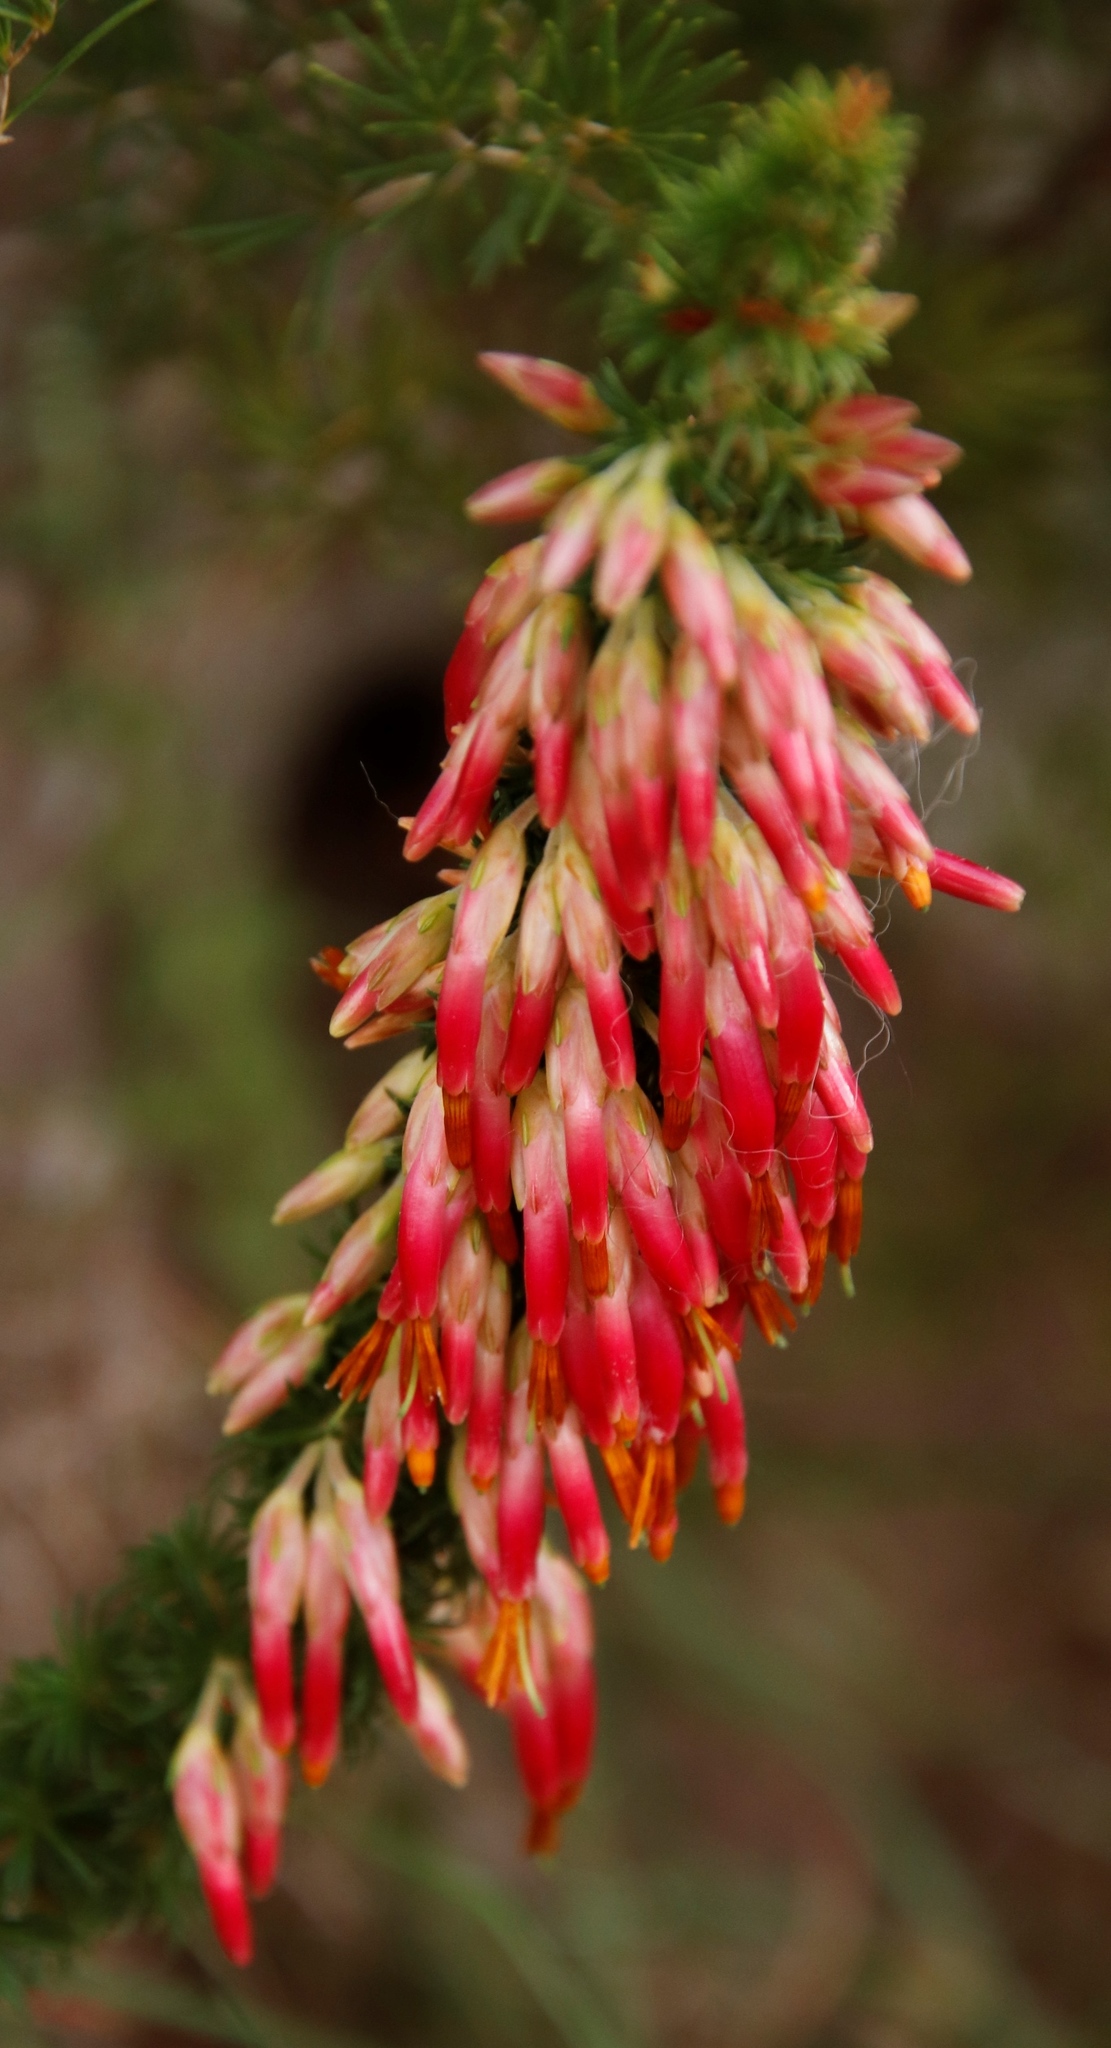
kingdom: Plantae
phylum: Tracheophyta
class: Magnoliopsida
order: Ericales
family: Ericaceae
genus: Erica
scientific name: Erica coccinea
